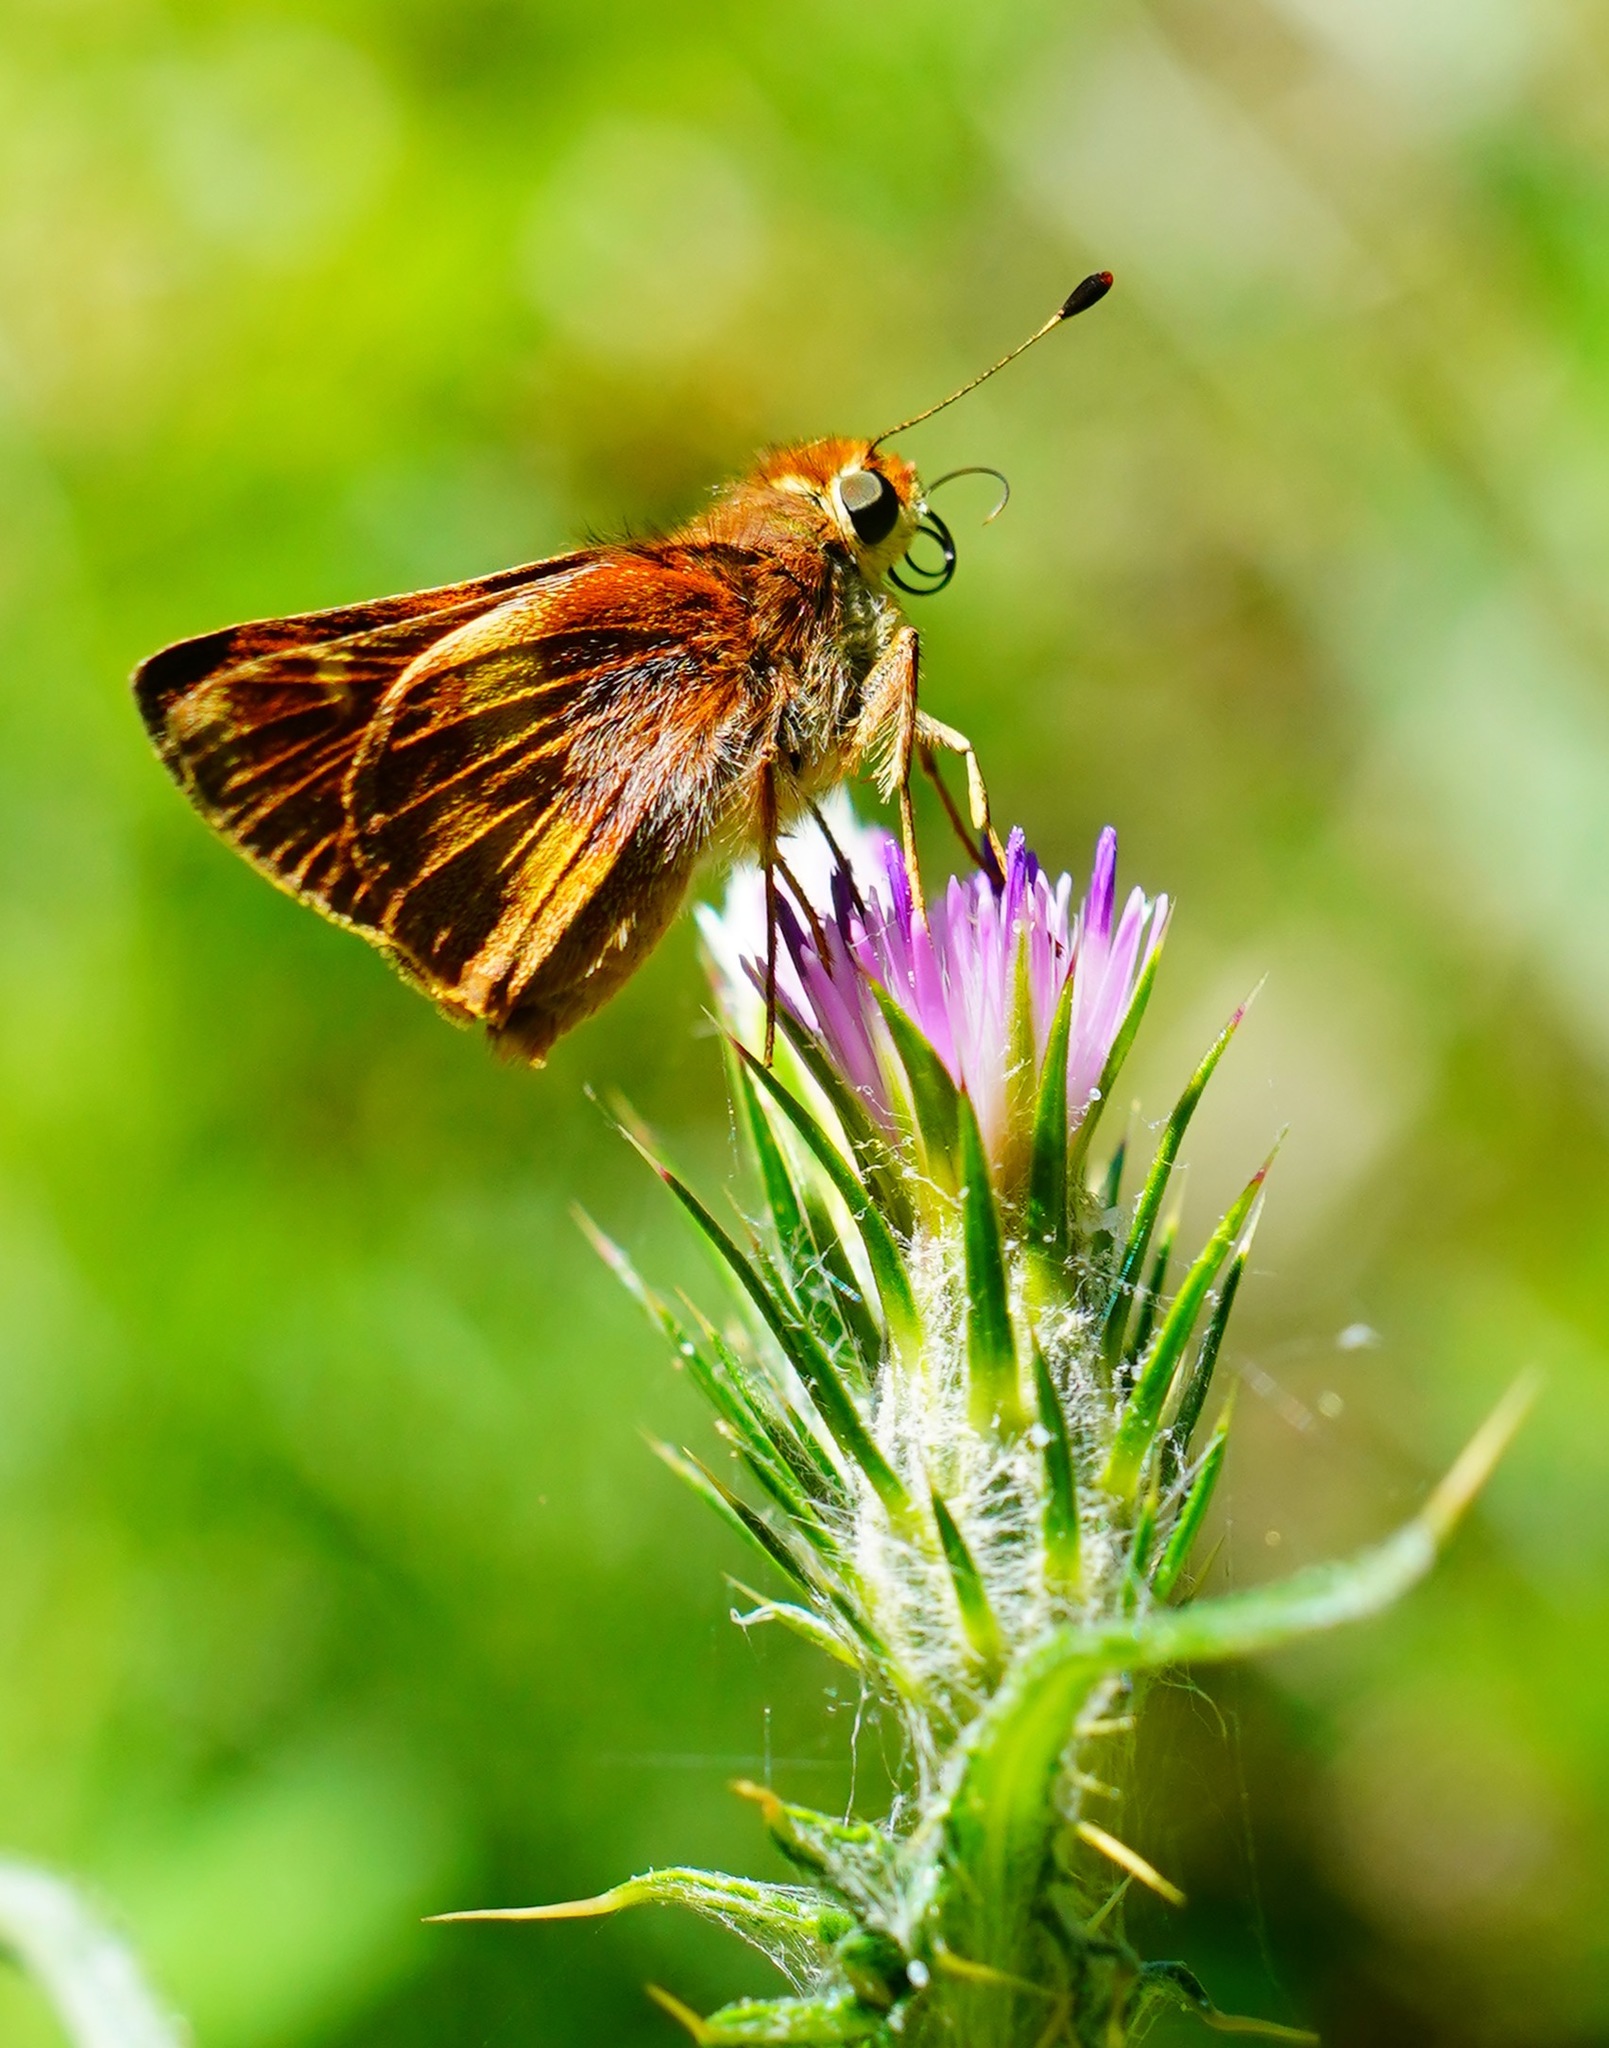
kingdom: Animalia
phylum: Arthropoda
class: Insecta
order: Lepidoptera
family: Hesperiidae
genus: Lon
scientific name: Lon melane
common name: Umber skipper
